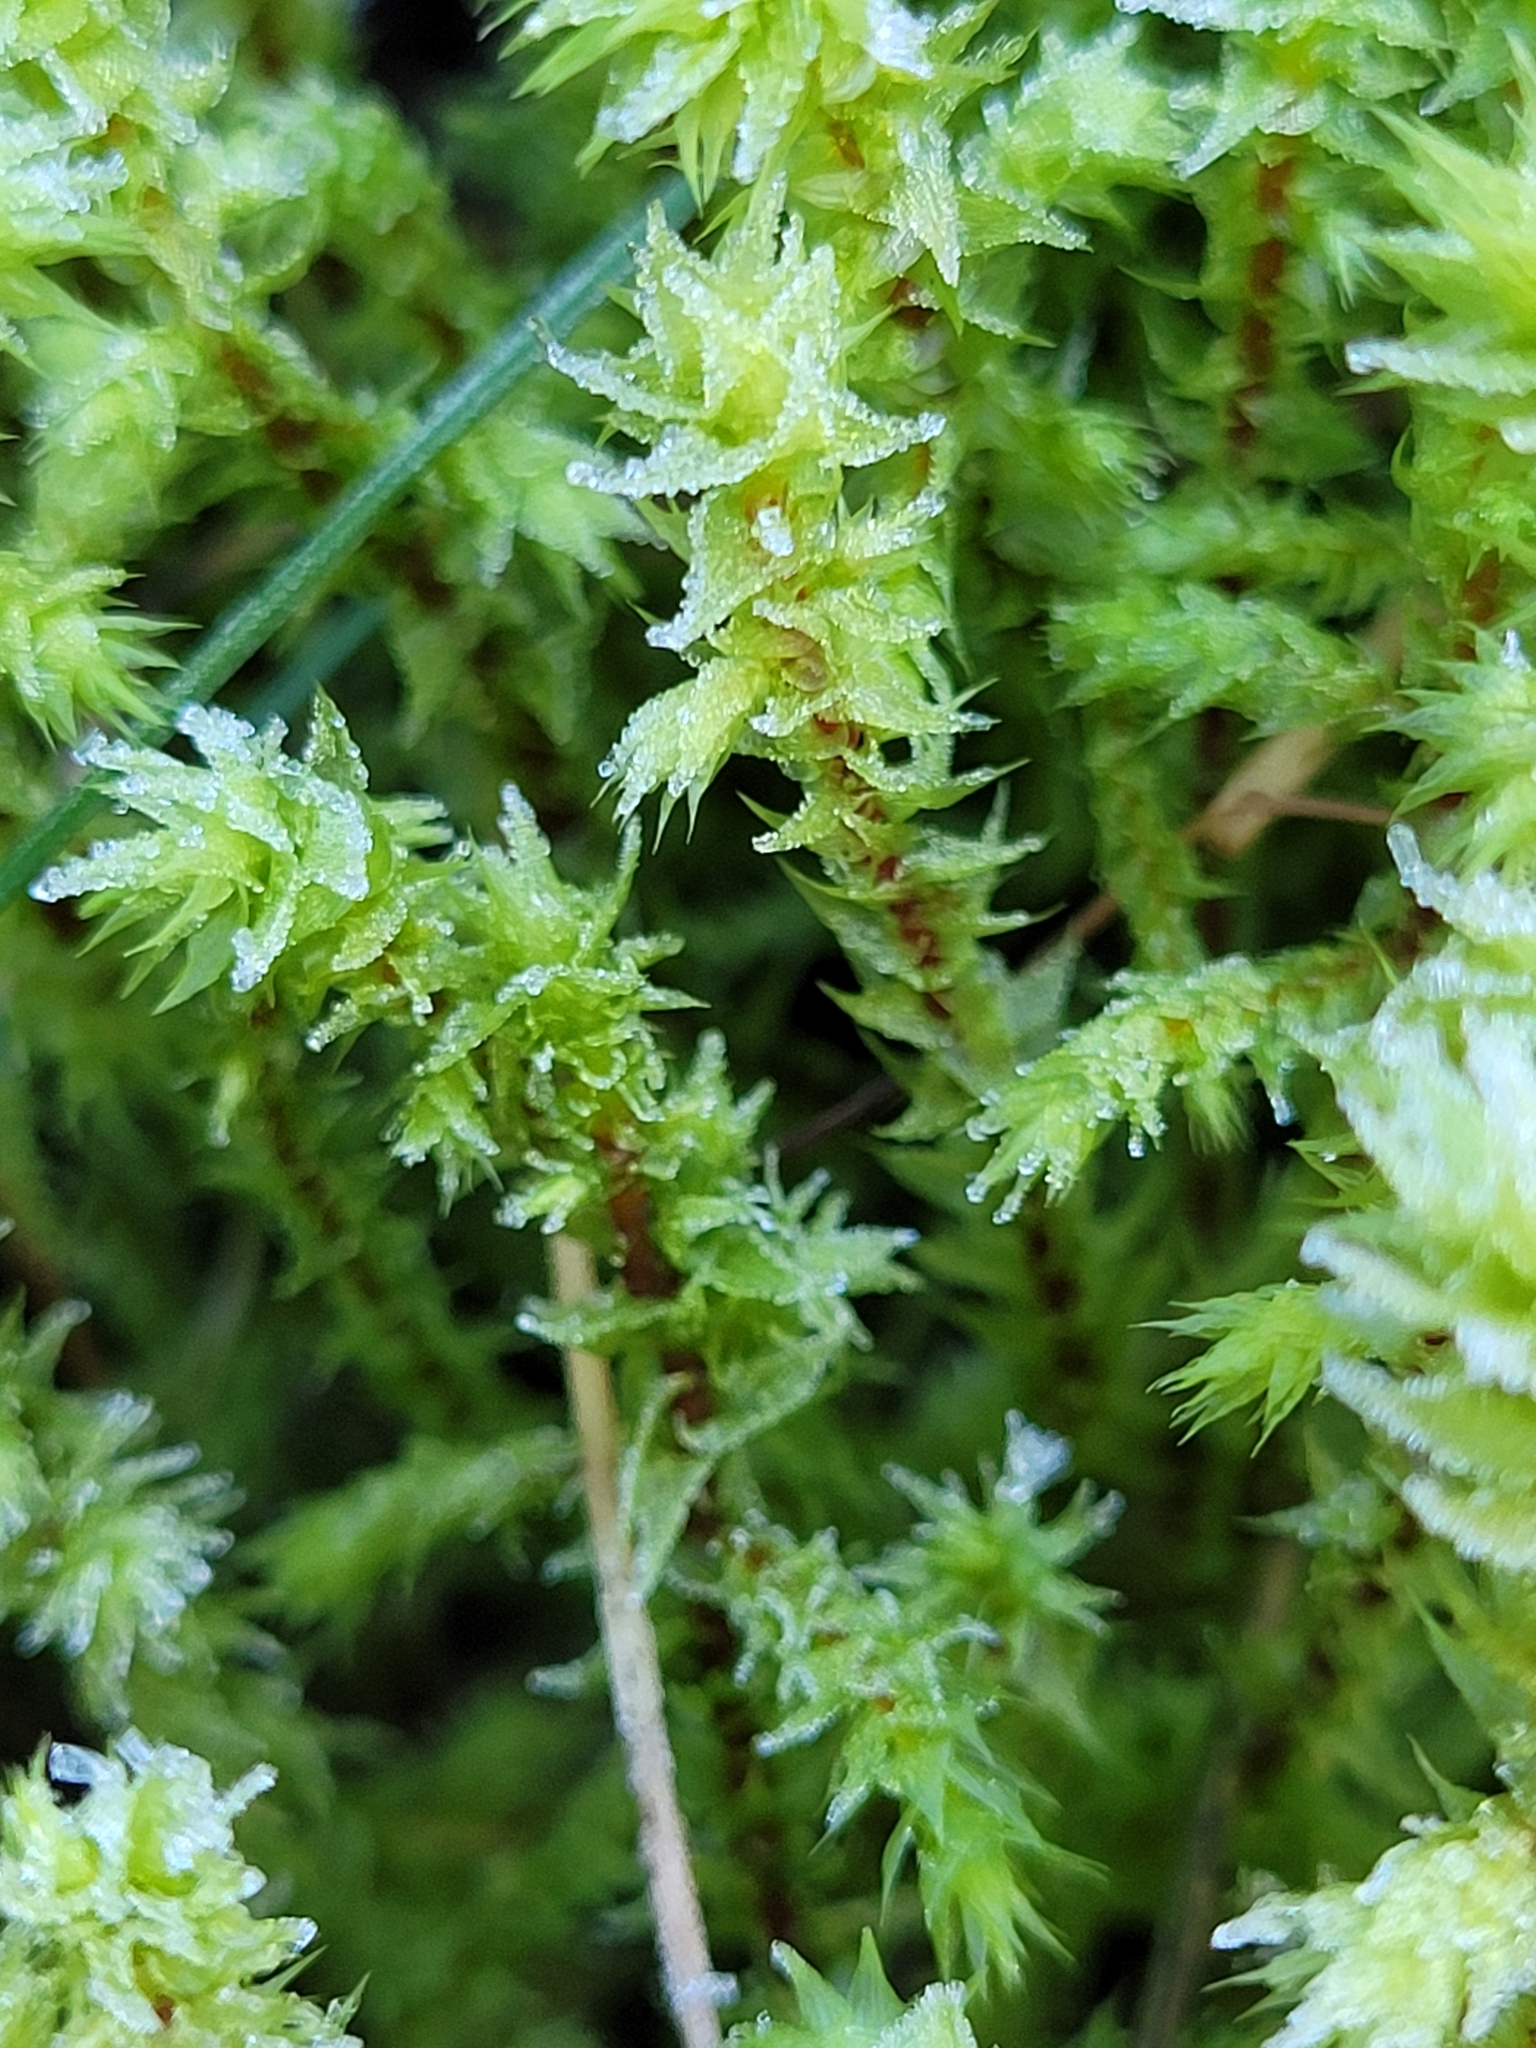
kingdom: Plantae
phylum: Bryophyta
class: Bryopsida
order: Hypnales
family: Hylocomiaceae
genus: Hylocomiadelphus
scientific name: Hylocomiadelphus triquetrus
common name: Rough goose neck moss
